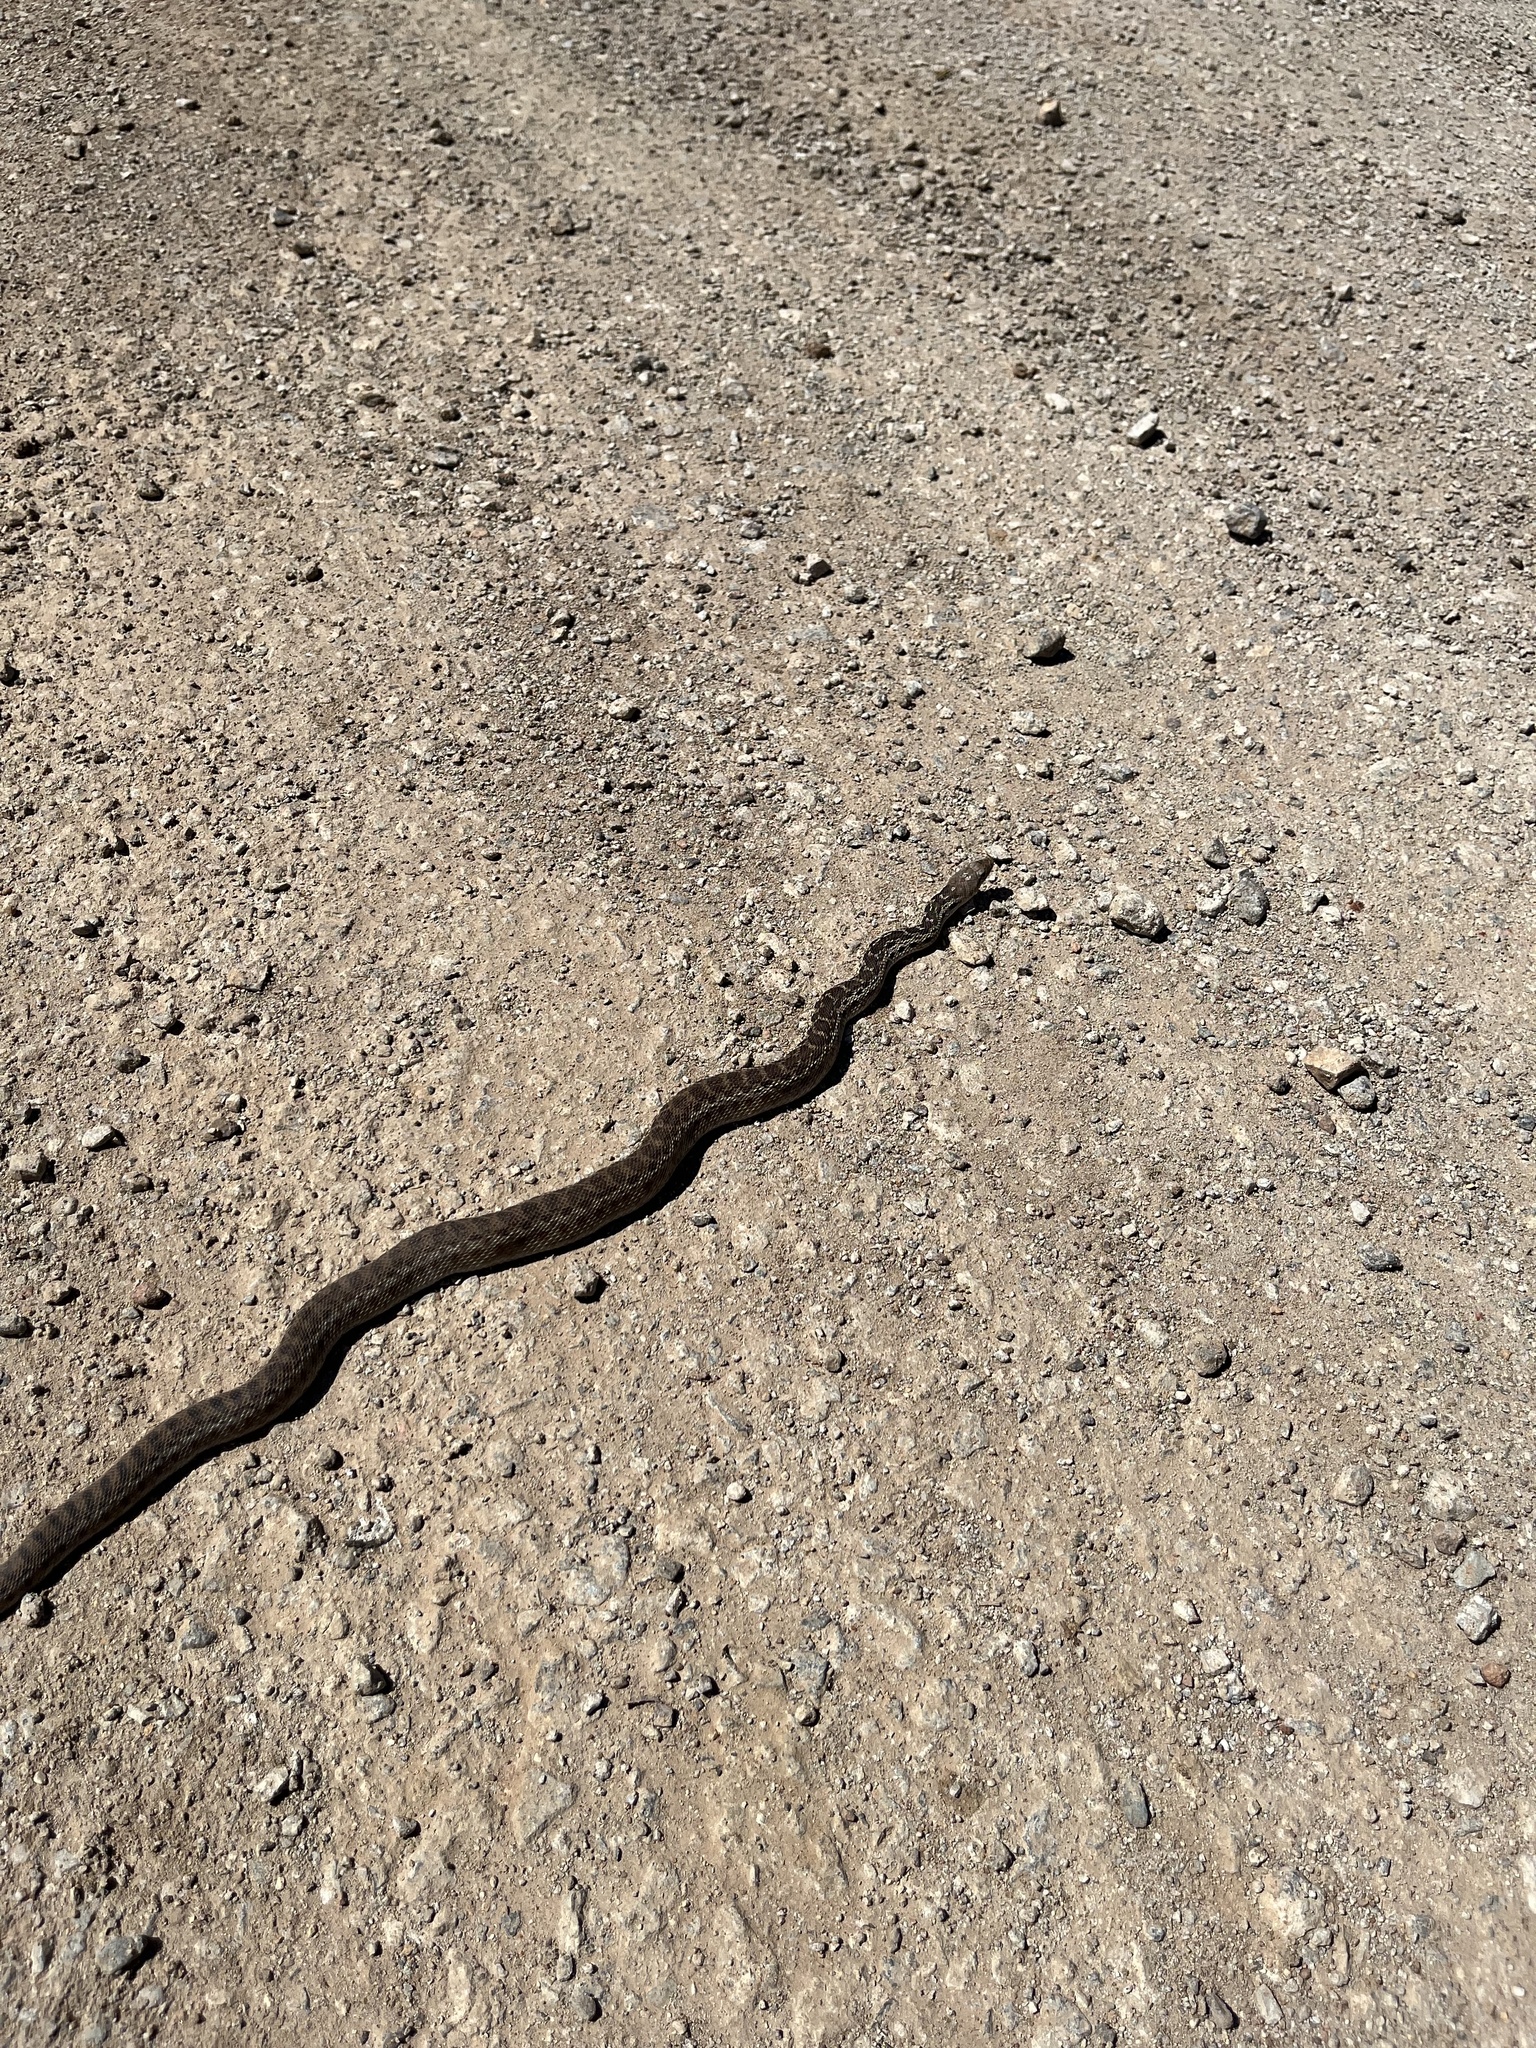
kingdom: Animalia
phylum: Chordata
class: Squamata
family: Colubridae
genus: Pituophis
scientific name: Pituophis catenifer
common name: Gopher snake
